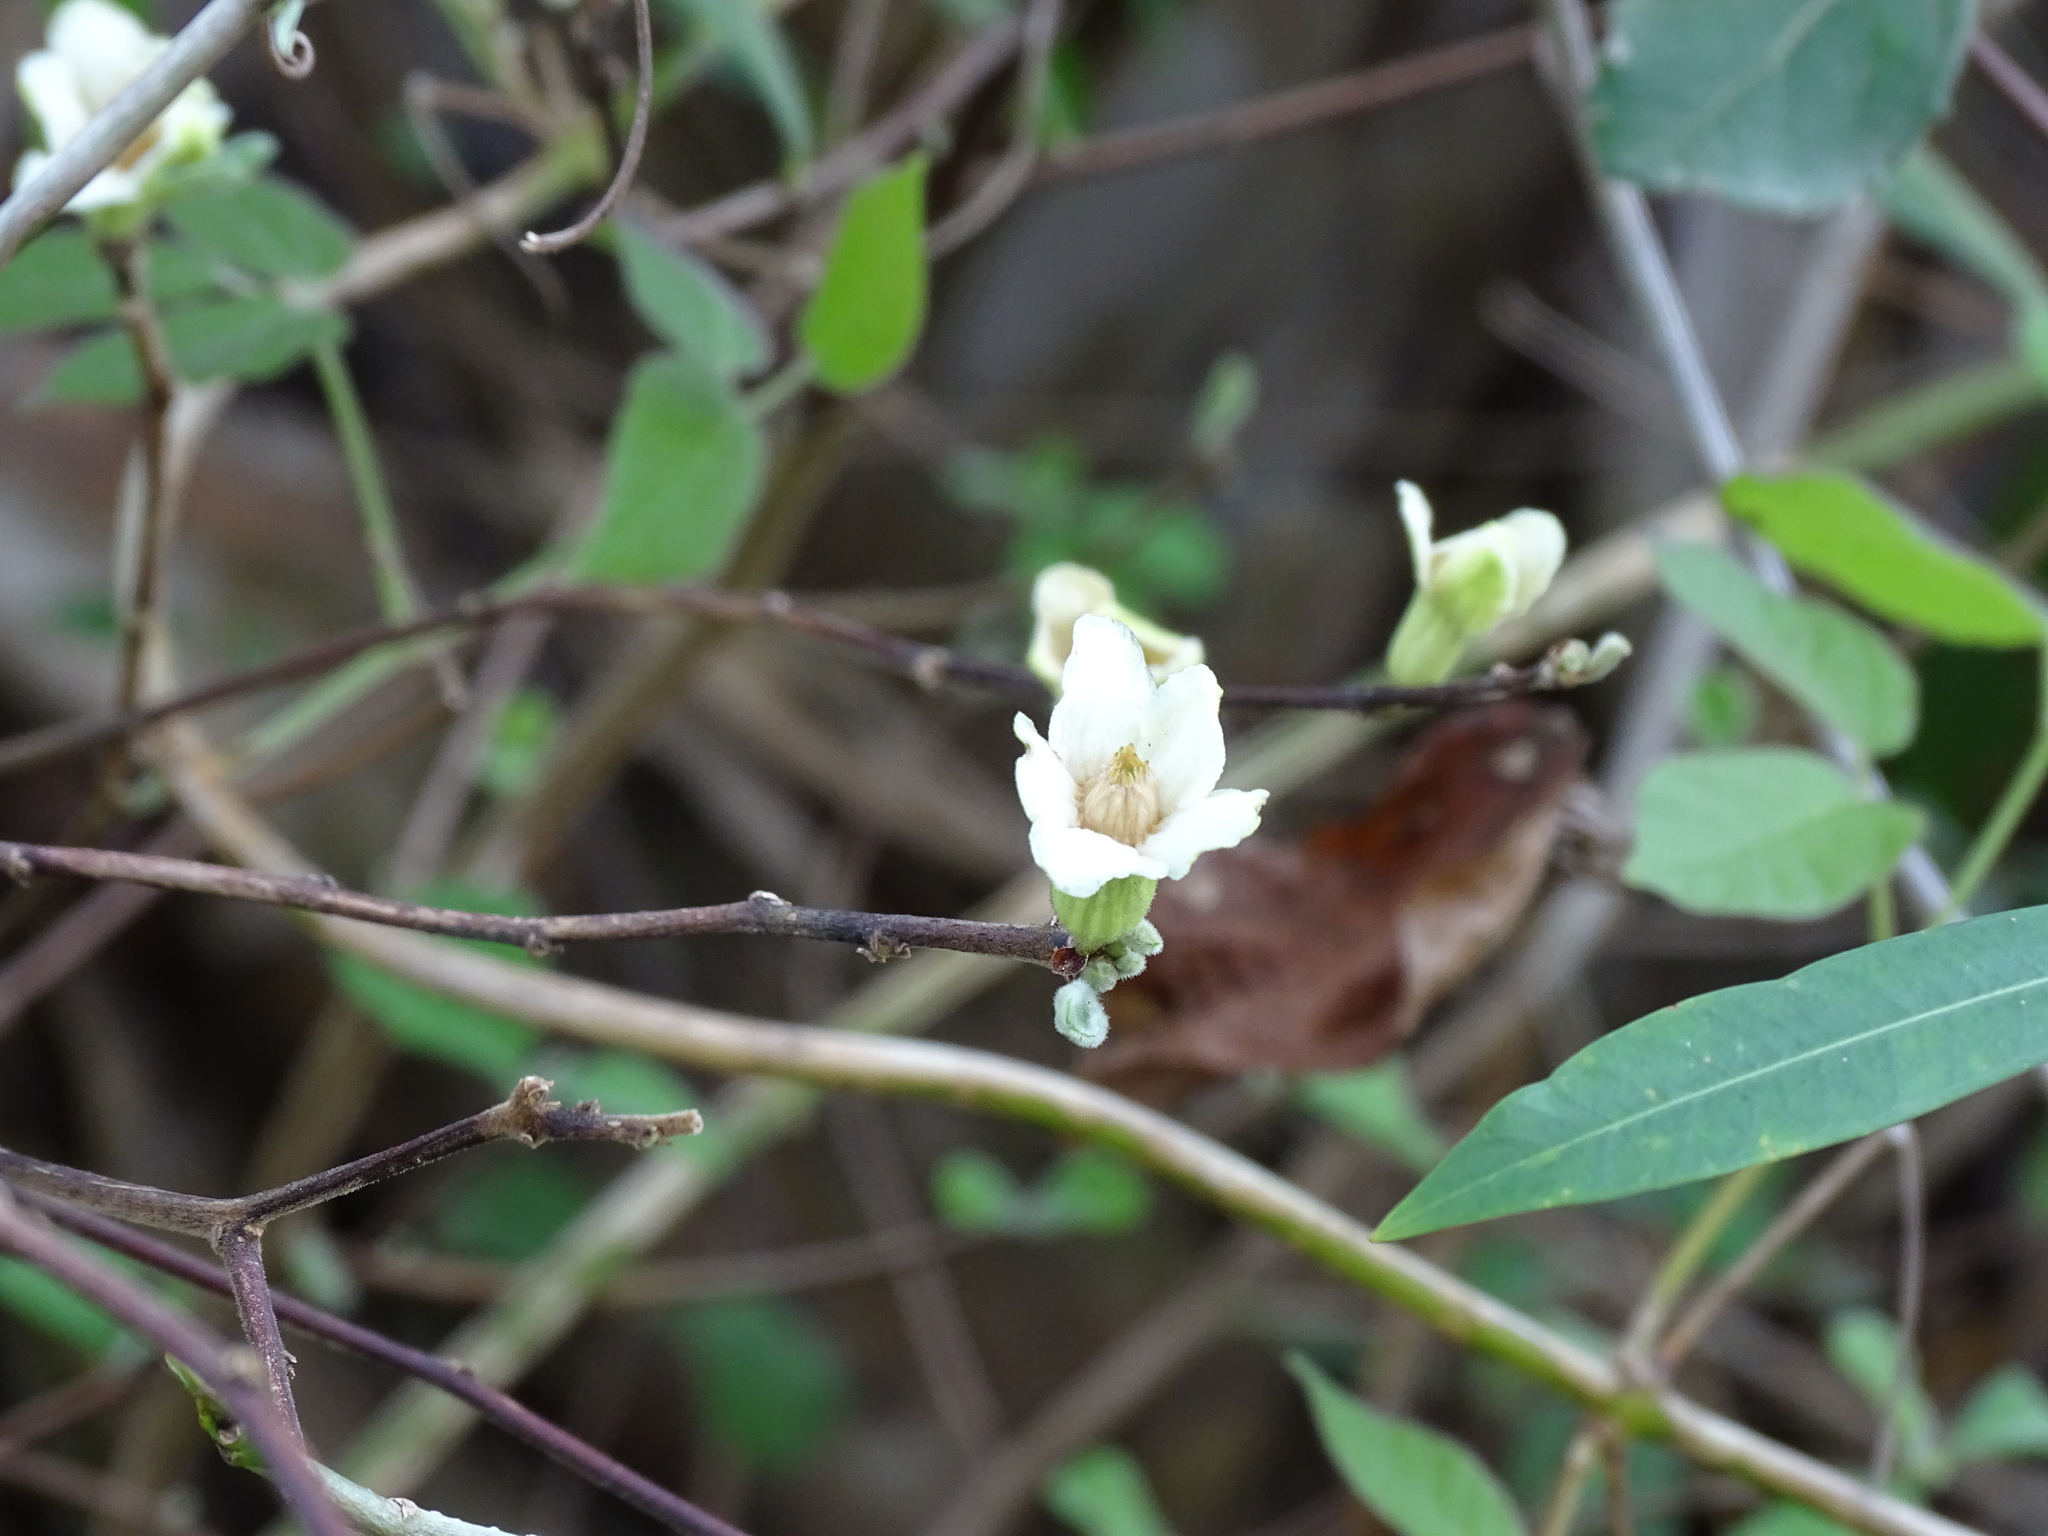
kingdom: Plantae
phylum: Tracheophyta
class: Magnoliopsida
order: Malpighiales
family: Salicaceae
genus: Casearia
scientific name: Casearia yucatanensis
